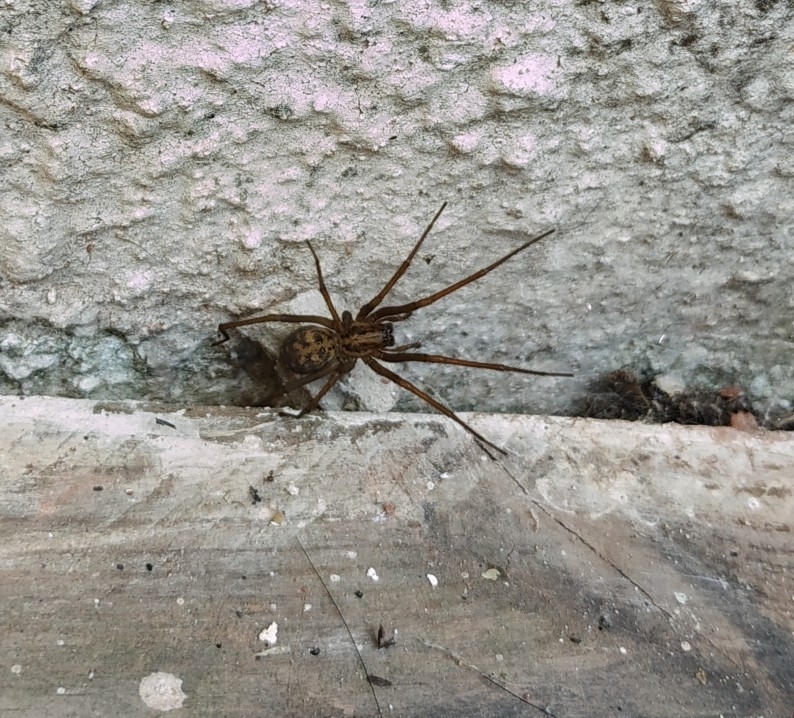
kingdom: Animalia
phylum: Arthropoda
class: Arachnida
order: Araneae
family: Agelenidae
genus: Eratigena
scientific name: Eratigena
